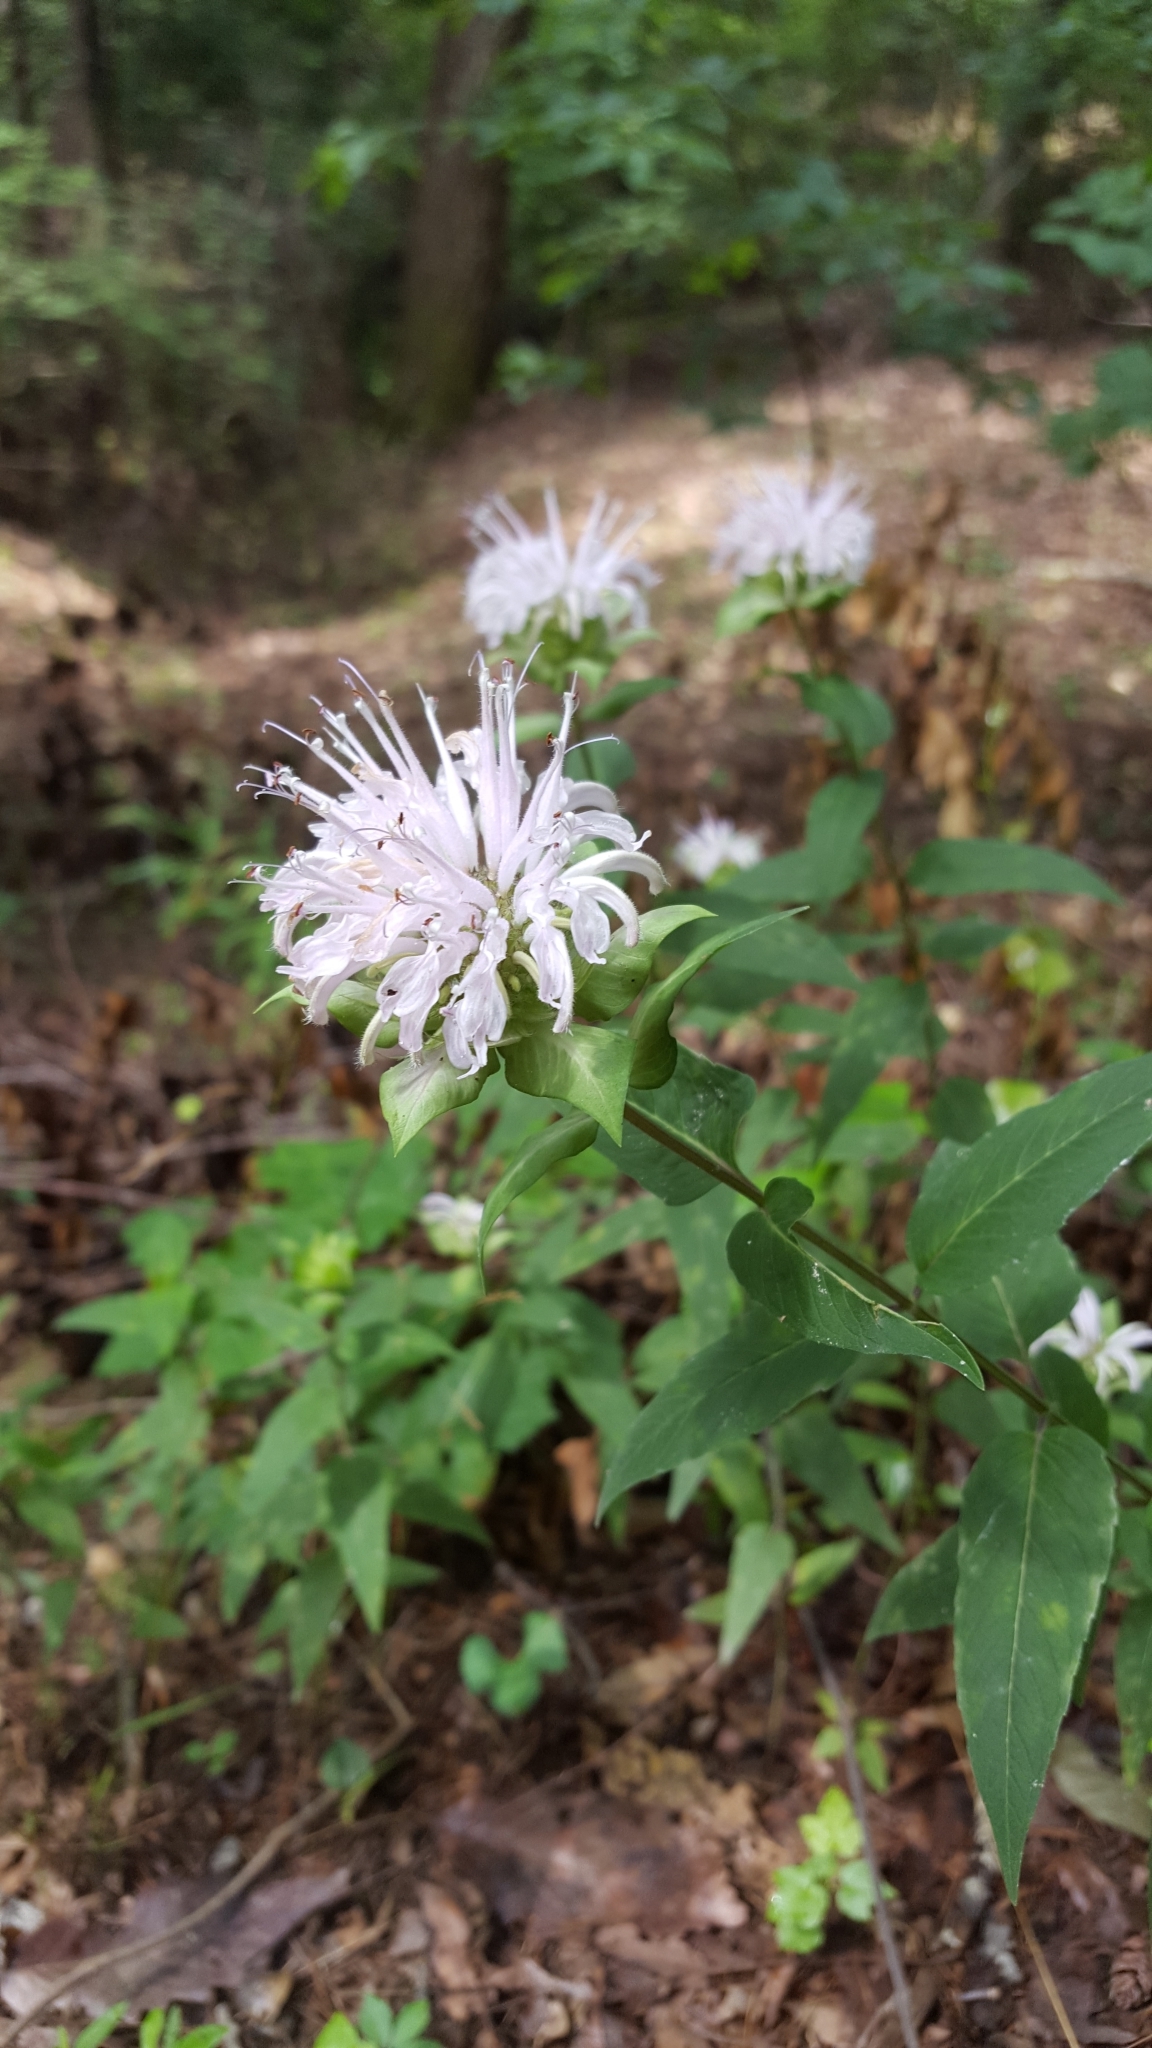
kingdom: Plantae
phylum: Tracheophyta
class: Magnoliopsida
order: Lamiales
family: Lamiaceae
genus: Monarda
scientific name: Monarda fistulosa
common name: Purple beebalm
